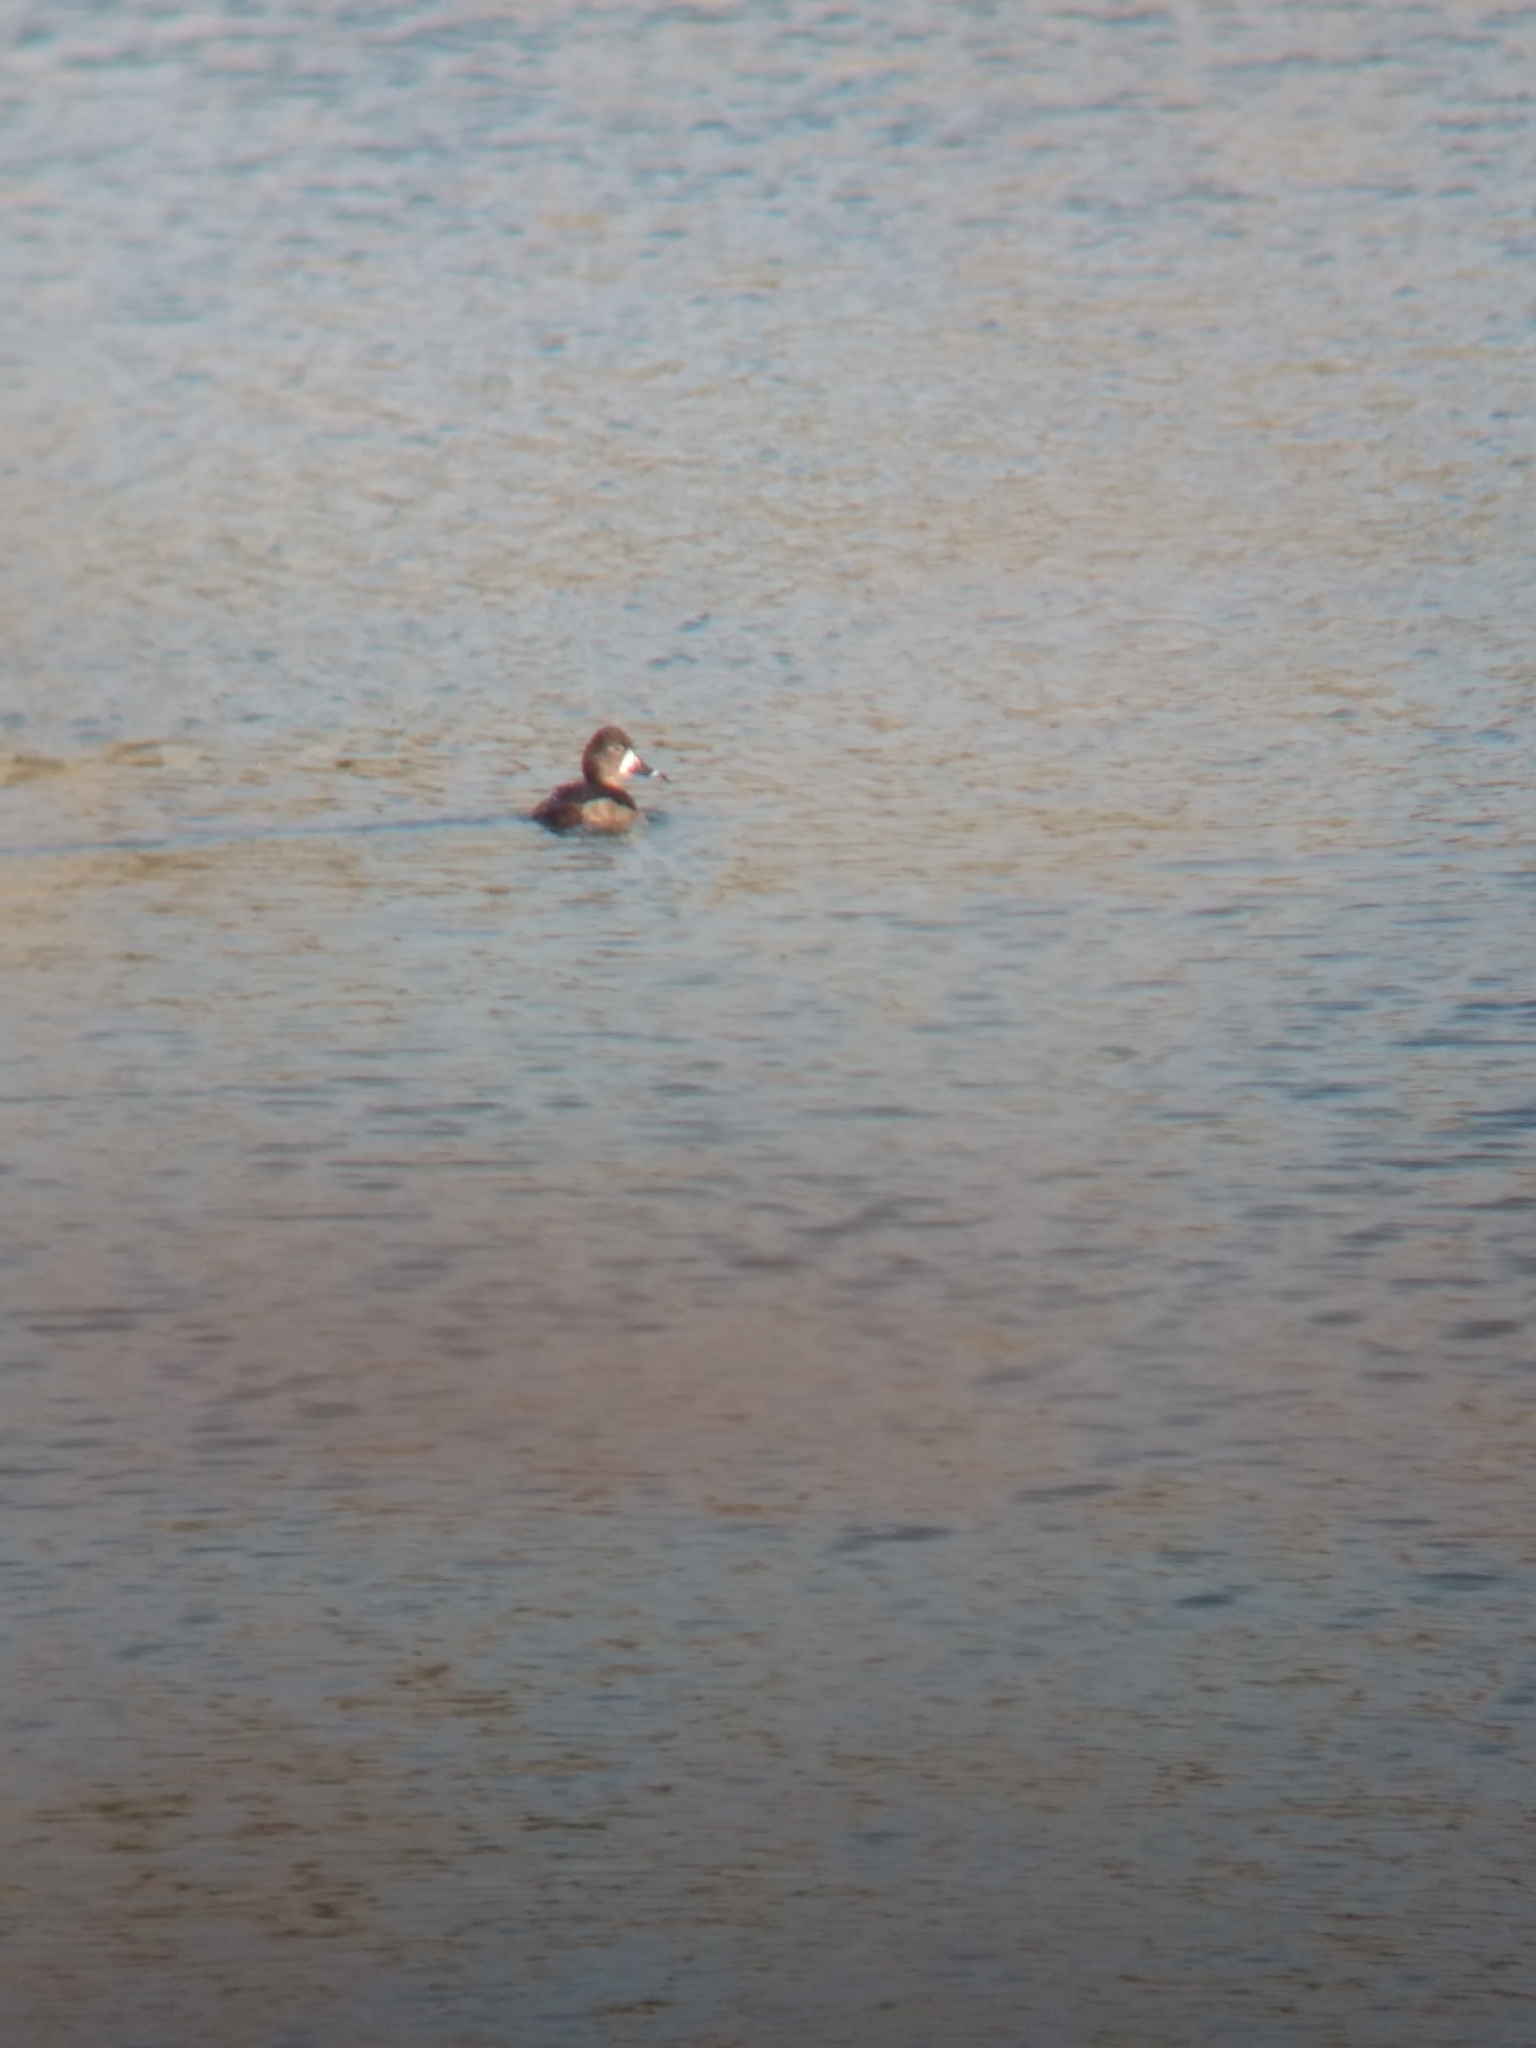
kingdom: Animalia
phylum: Chordata
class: Aves
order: Anseriformes
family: Anatidae
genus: Aythya
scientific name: Aythya collaris
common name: Ring-necked duck
